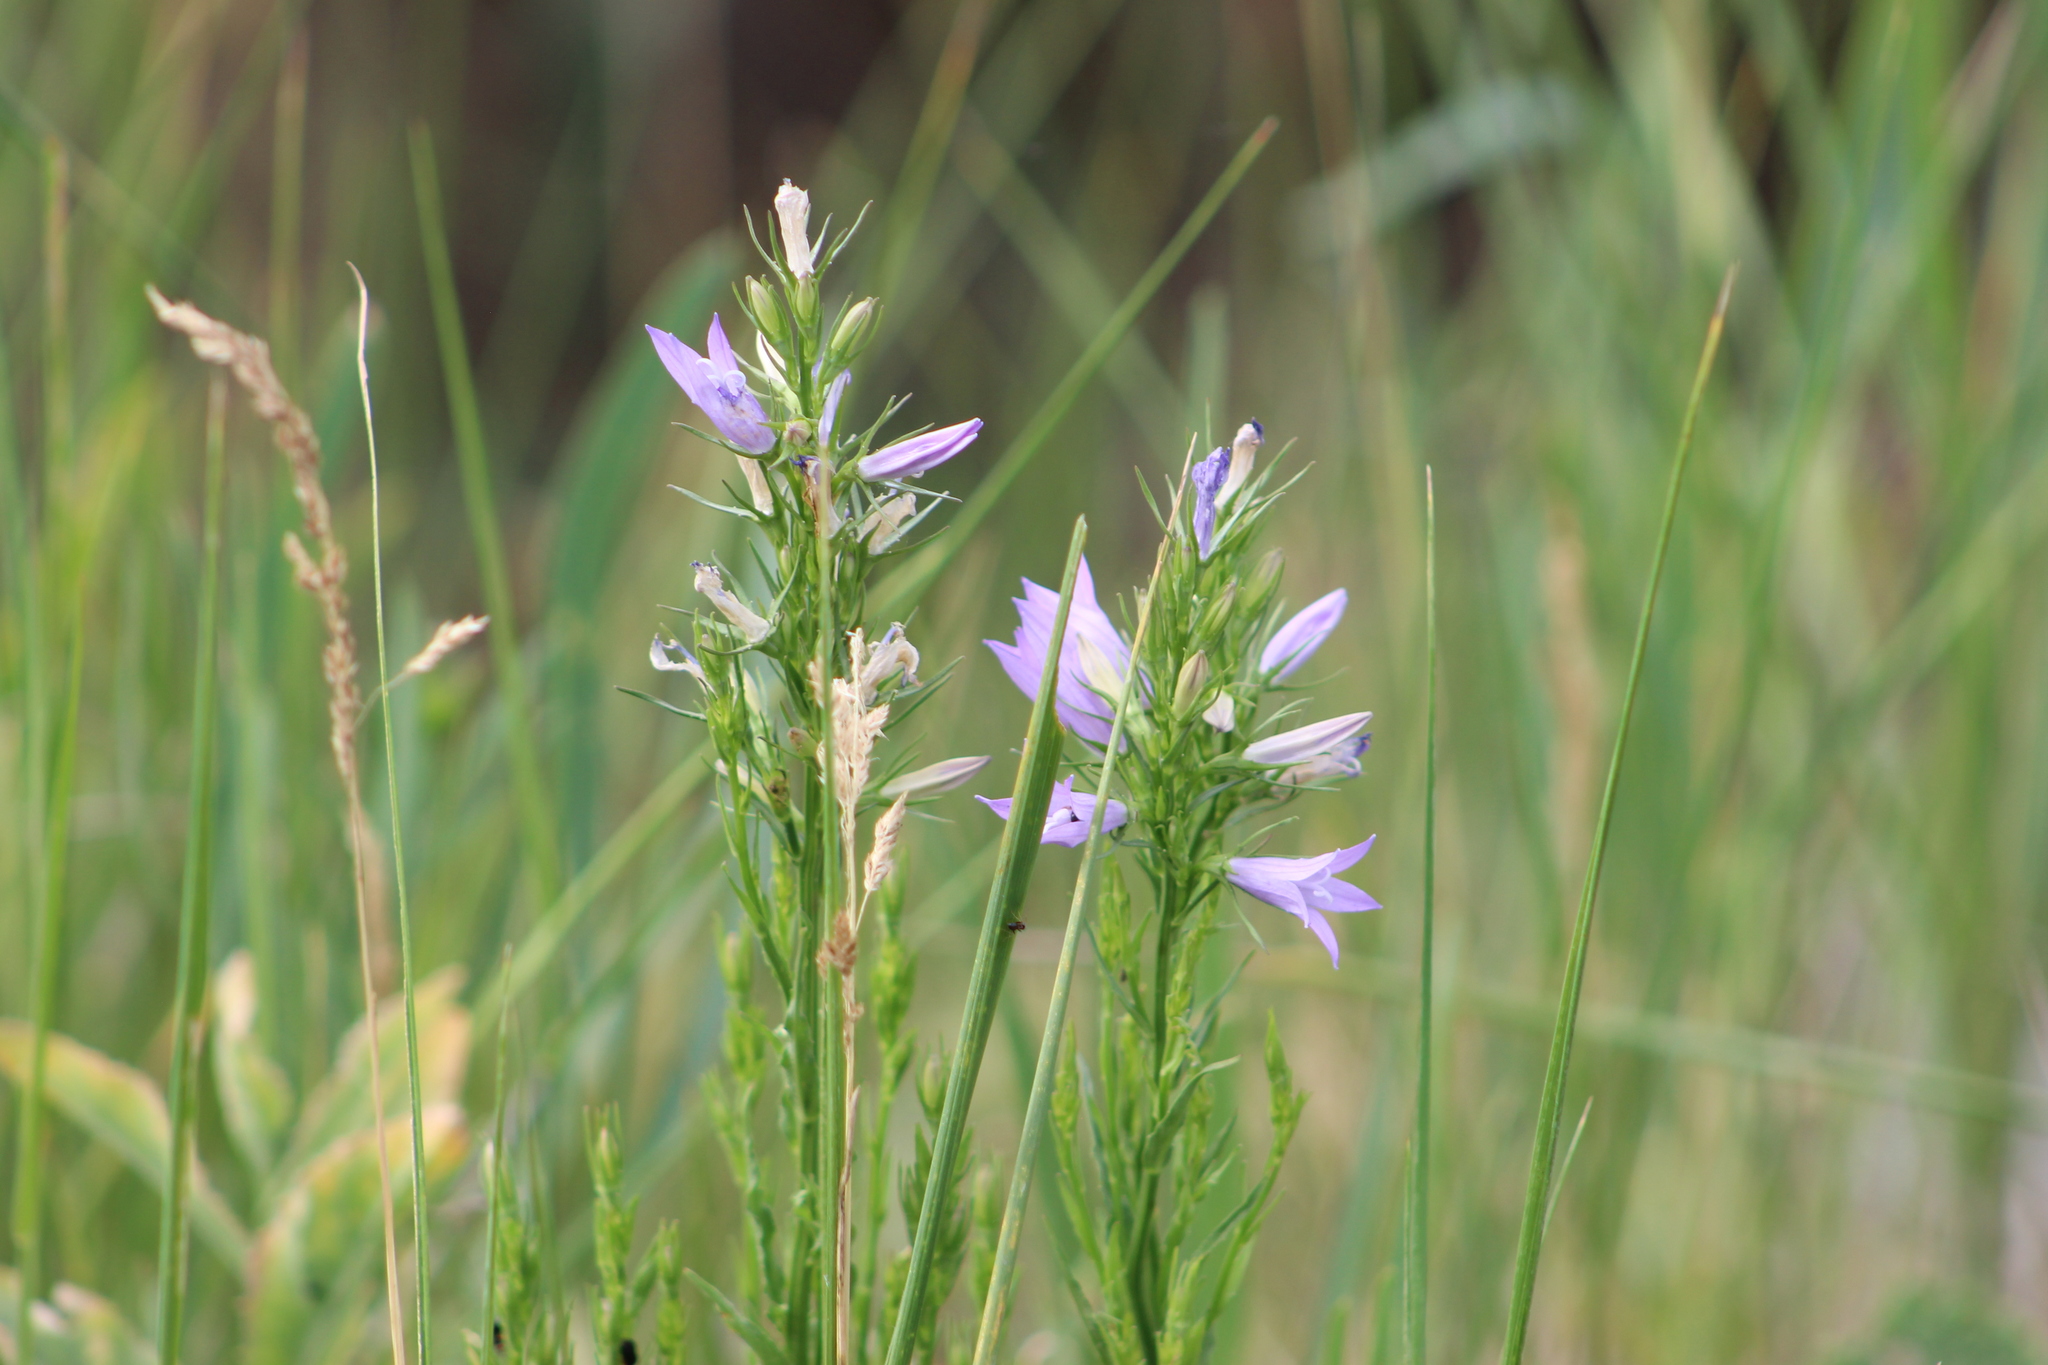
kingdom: Plantae
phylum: Tracheophyta
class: Magnoliopsida
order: Asterales
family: Campanulaceae
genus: Campanula
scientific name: Campanula rapunculus
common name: Rampion bellflower
